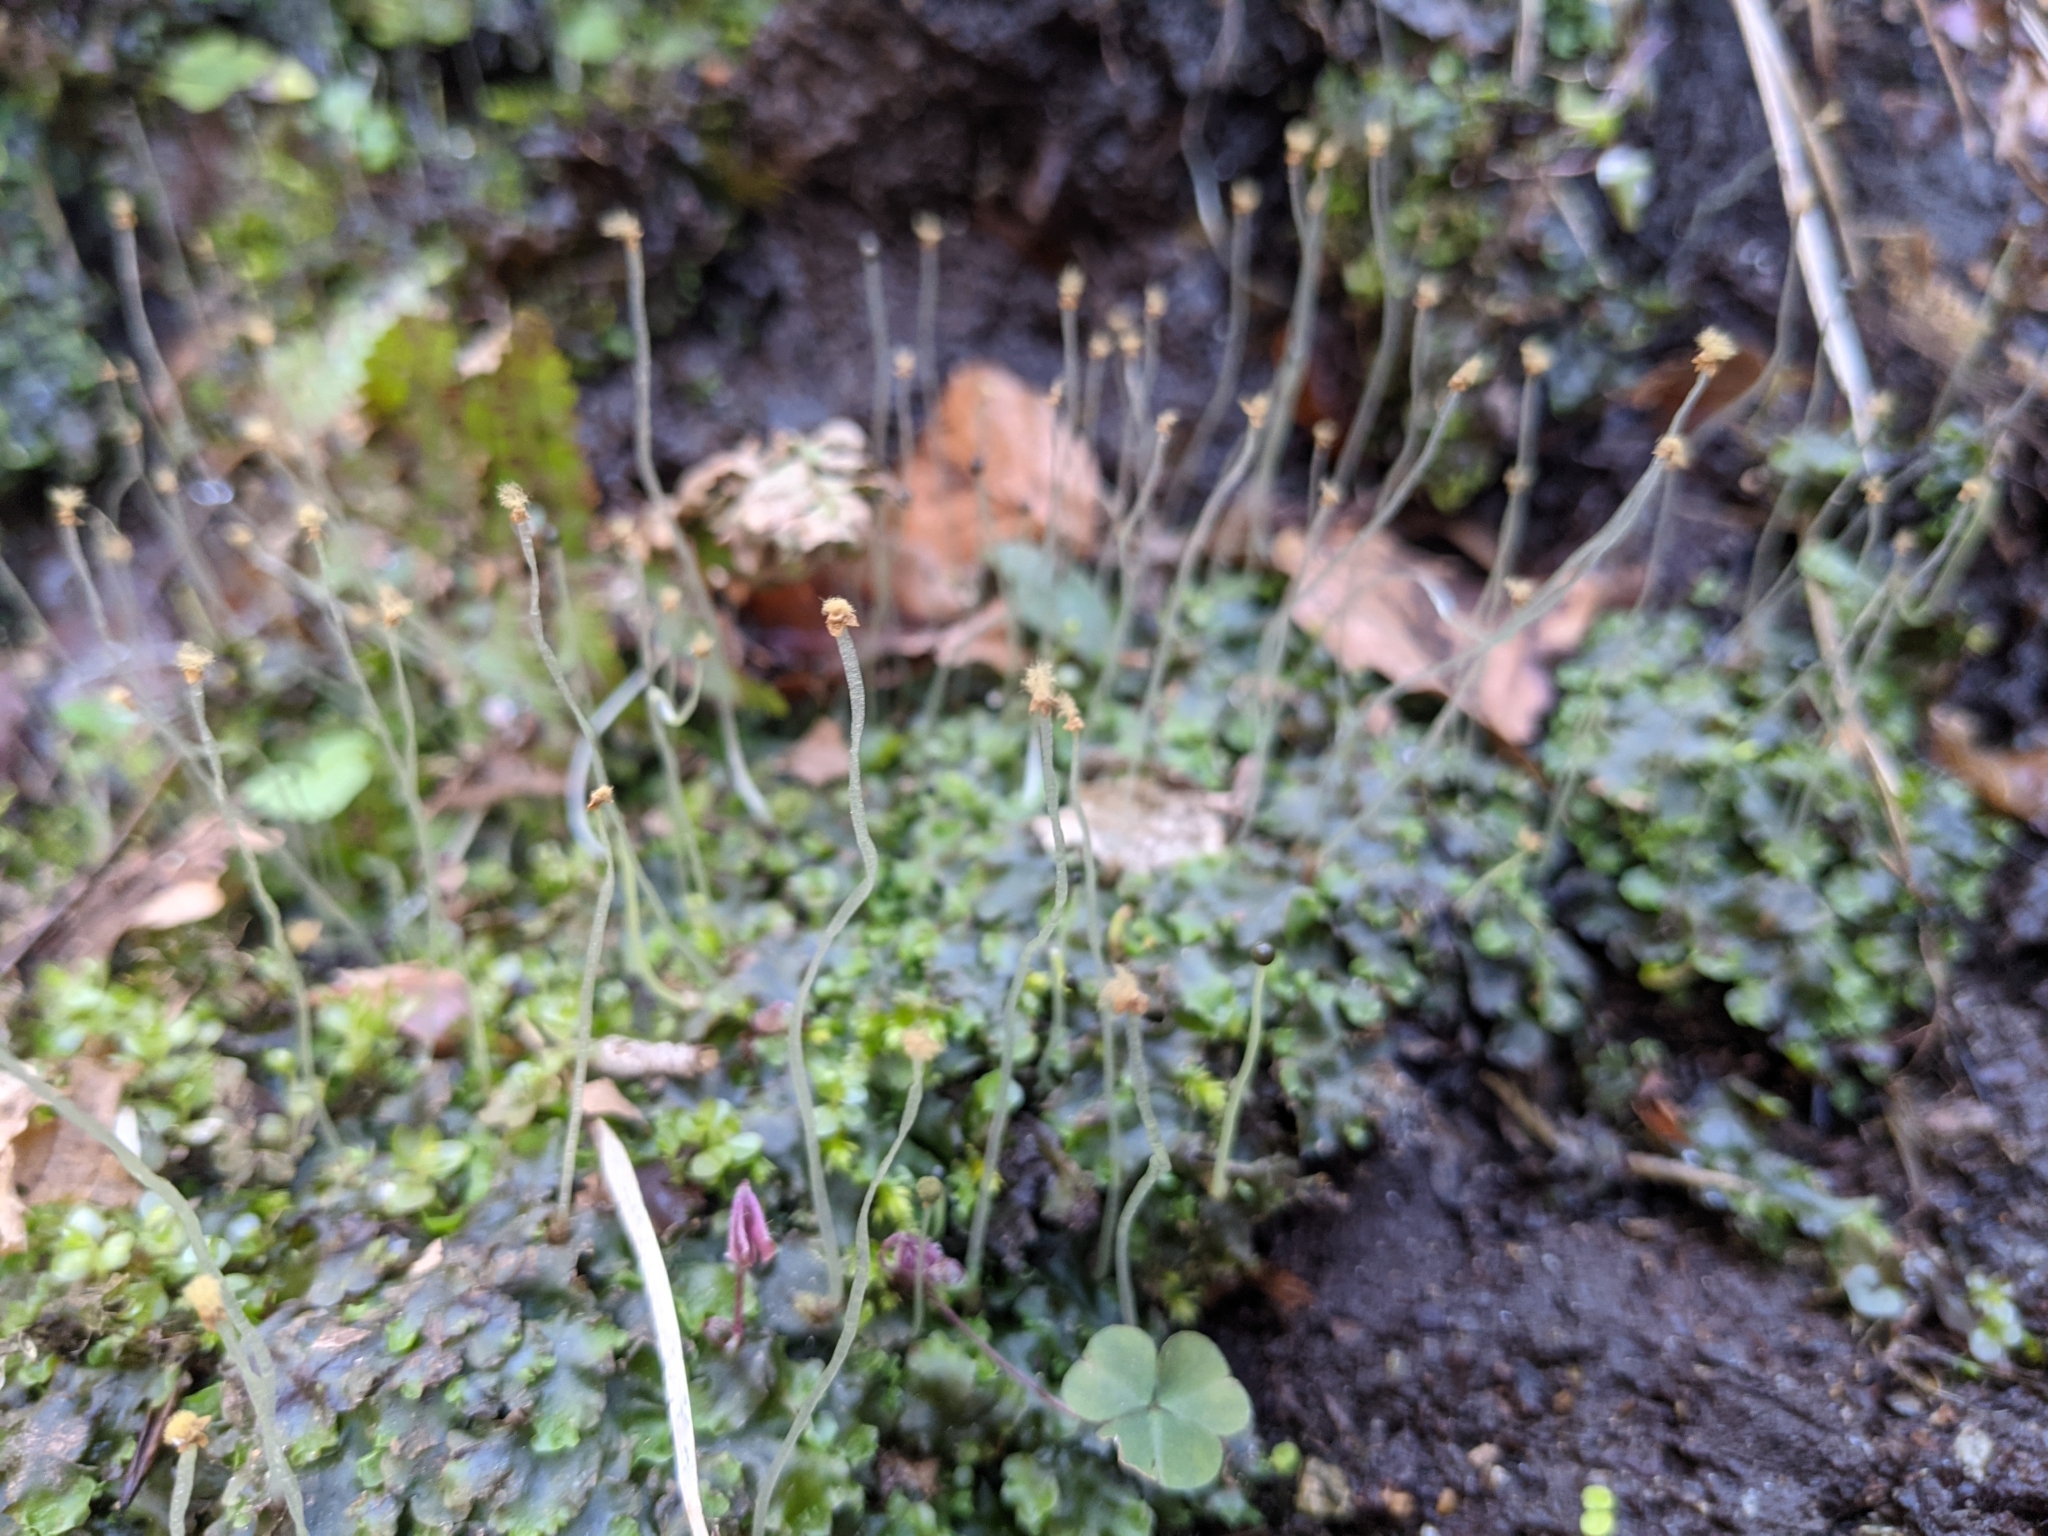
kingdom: Plantae
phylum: Marchantiophyta
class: Jungermanniopsida
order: Pelliales
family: Pelliaceae
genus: Pellia
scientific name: Pellia epiphylla
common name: Common pellia
